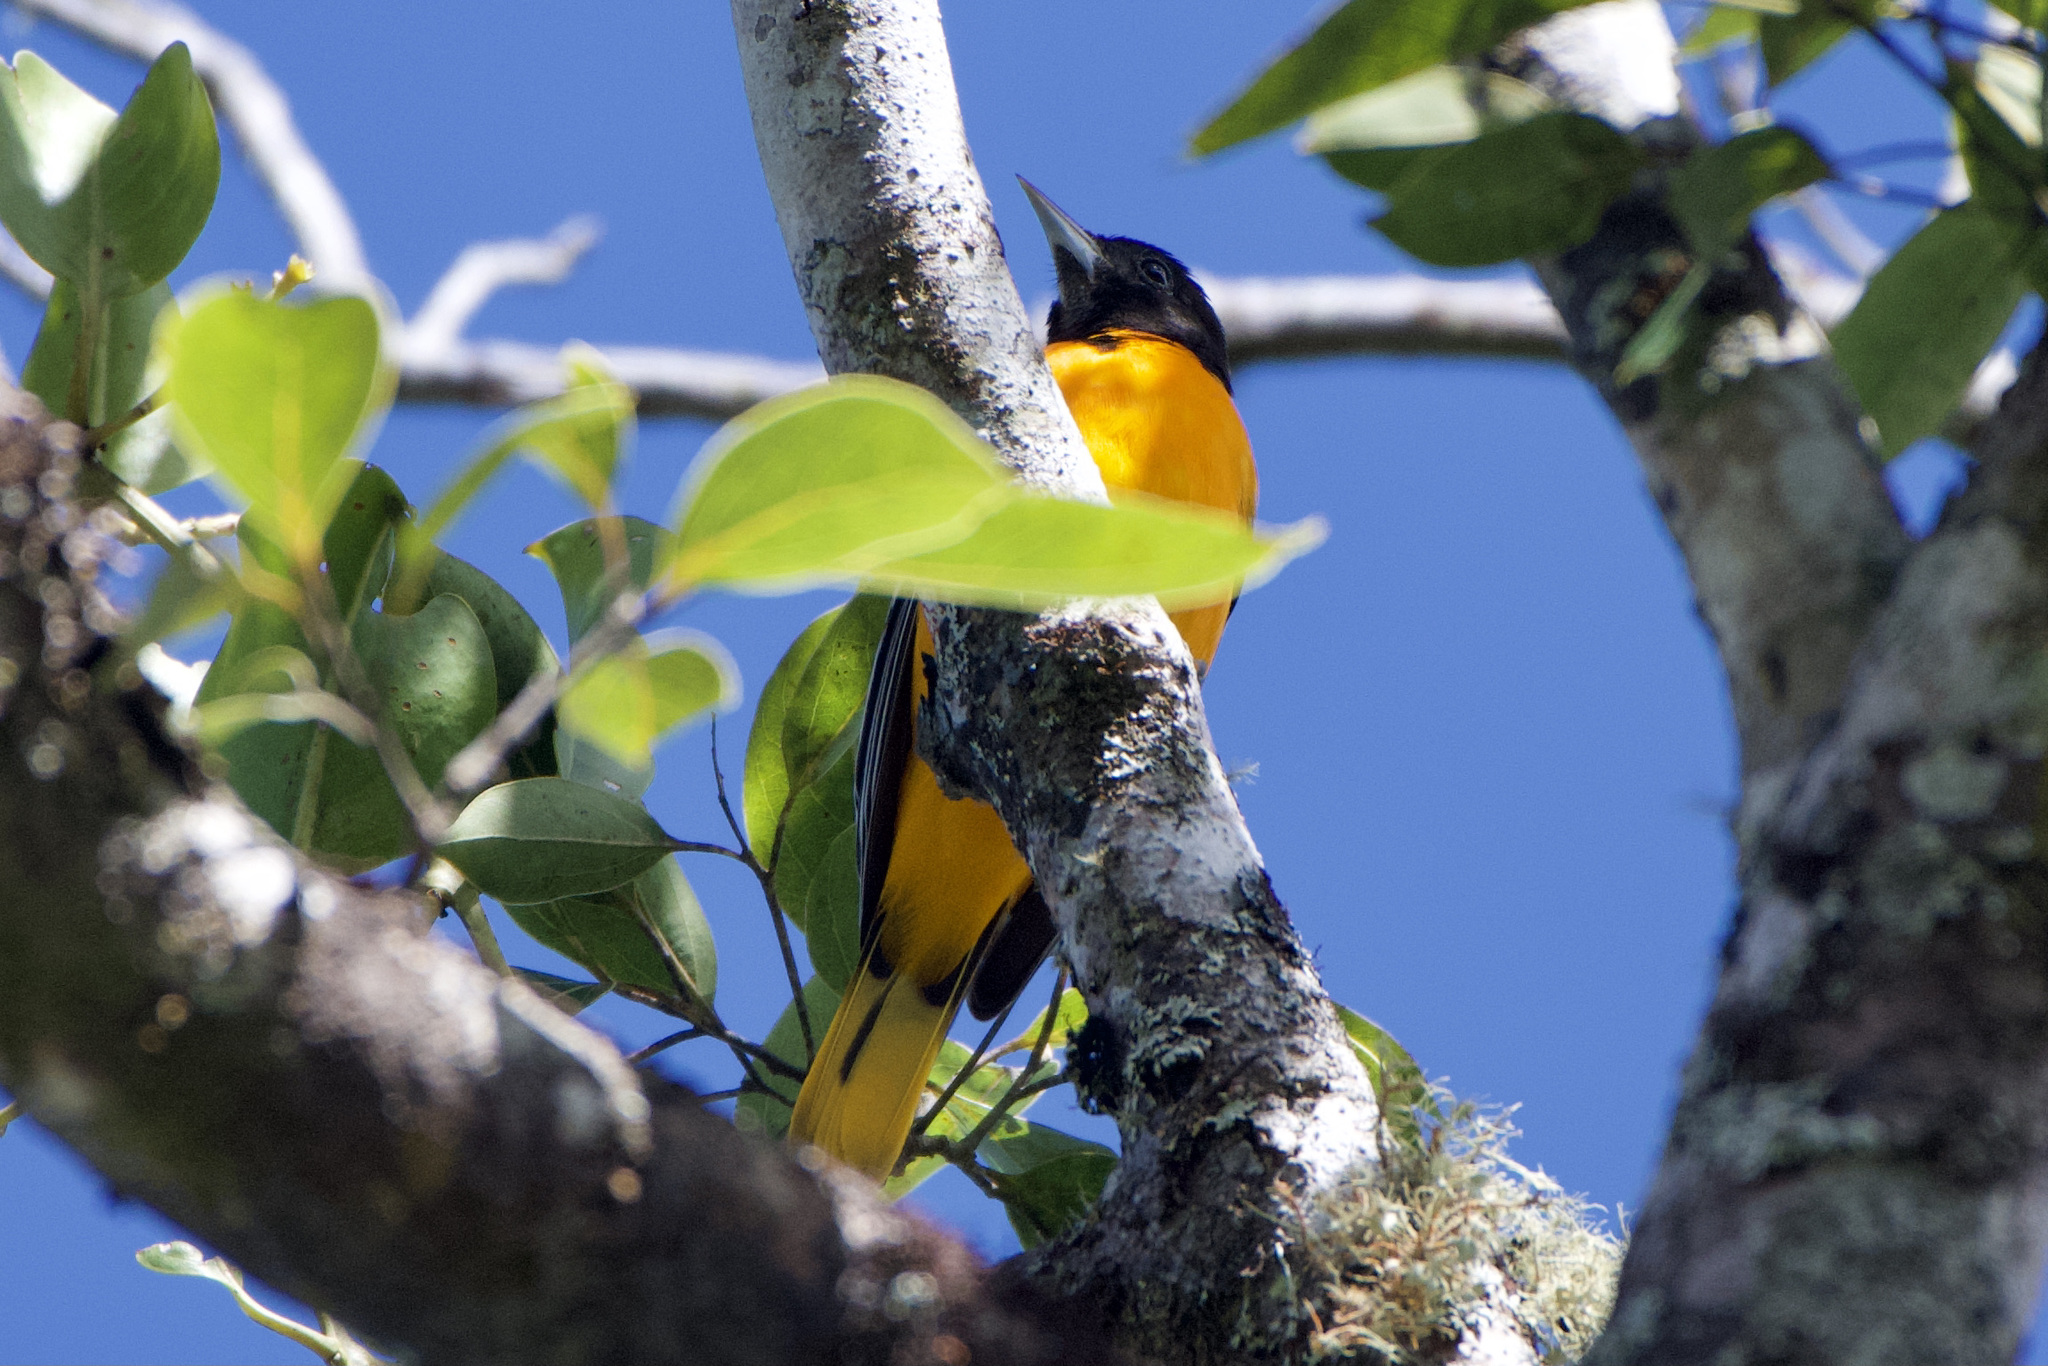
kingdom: Animalia
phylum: Chordata
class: Aves
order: Passeriformes
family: Icteridae
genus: Icterus
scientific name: Icterus galbula
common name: Baltimore oriole
